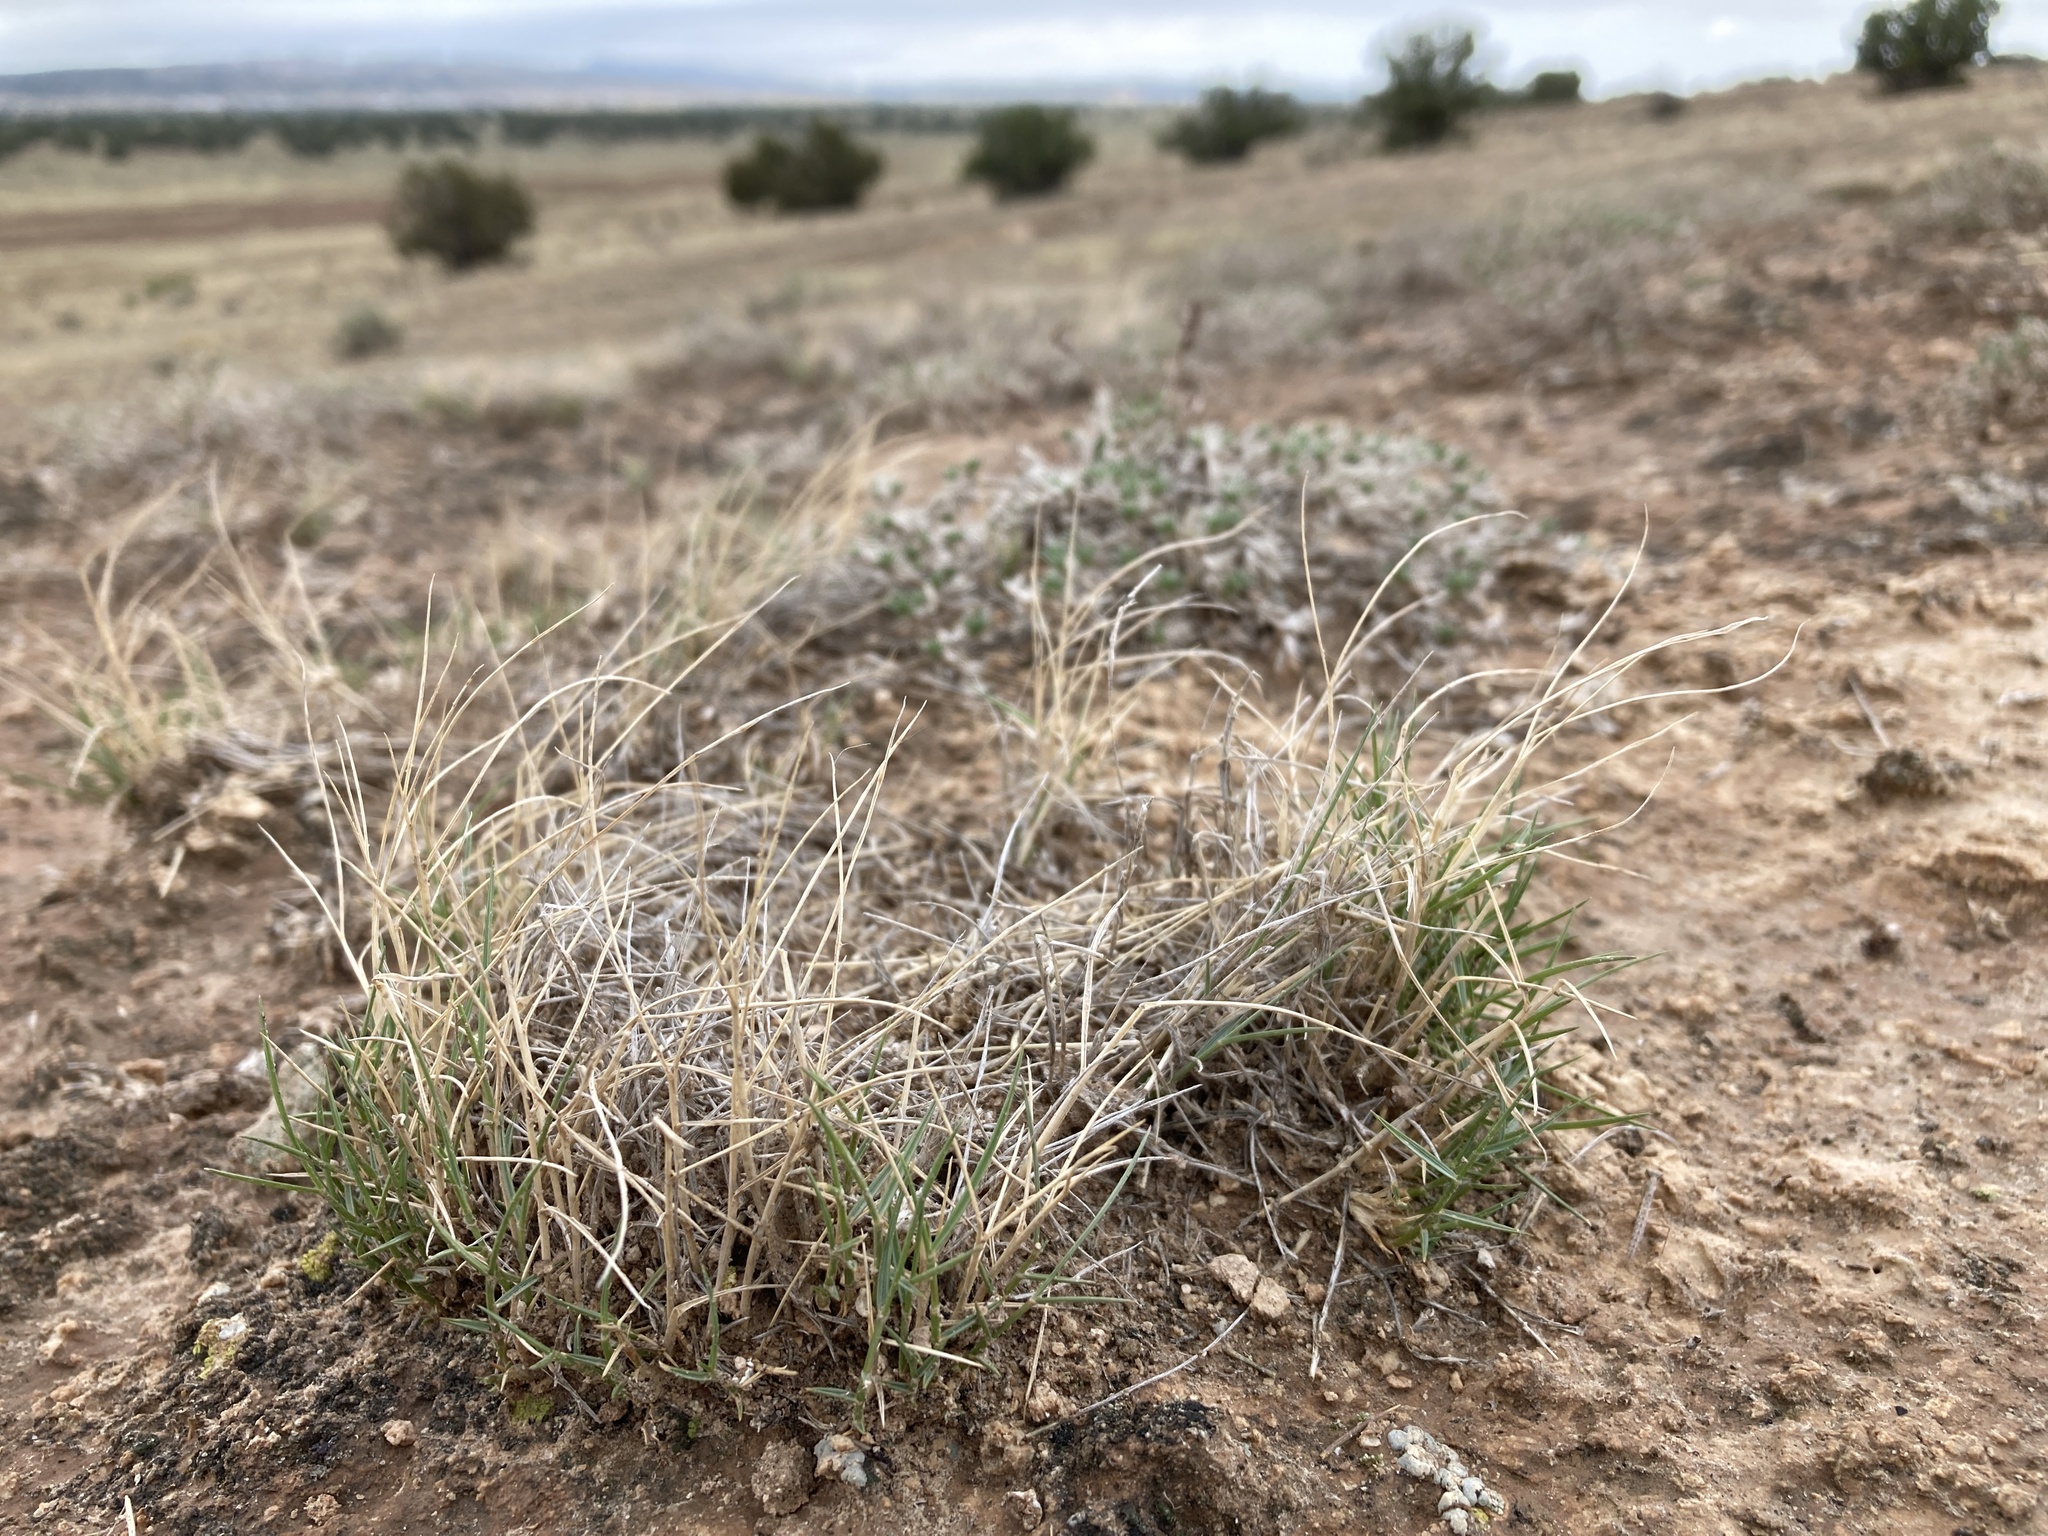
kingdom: Plantae
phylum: Tracheophyta
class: Liliopsida
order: Poales
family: Poaceae
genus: Sporobolus
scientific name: Sporobolus nealleyi
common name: Gyp grass
